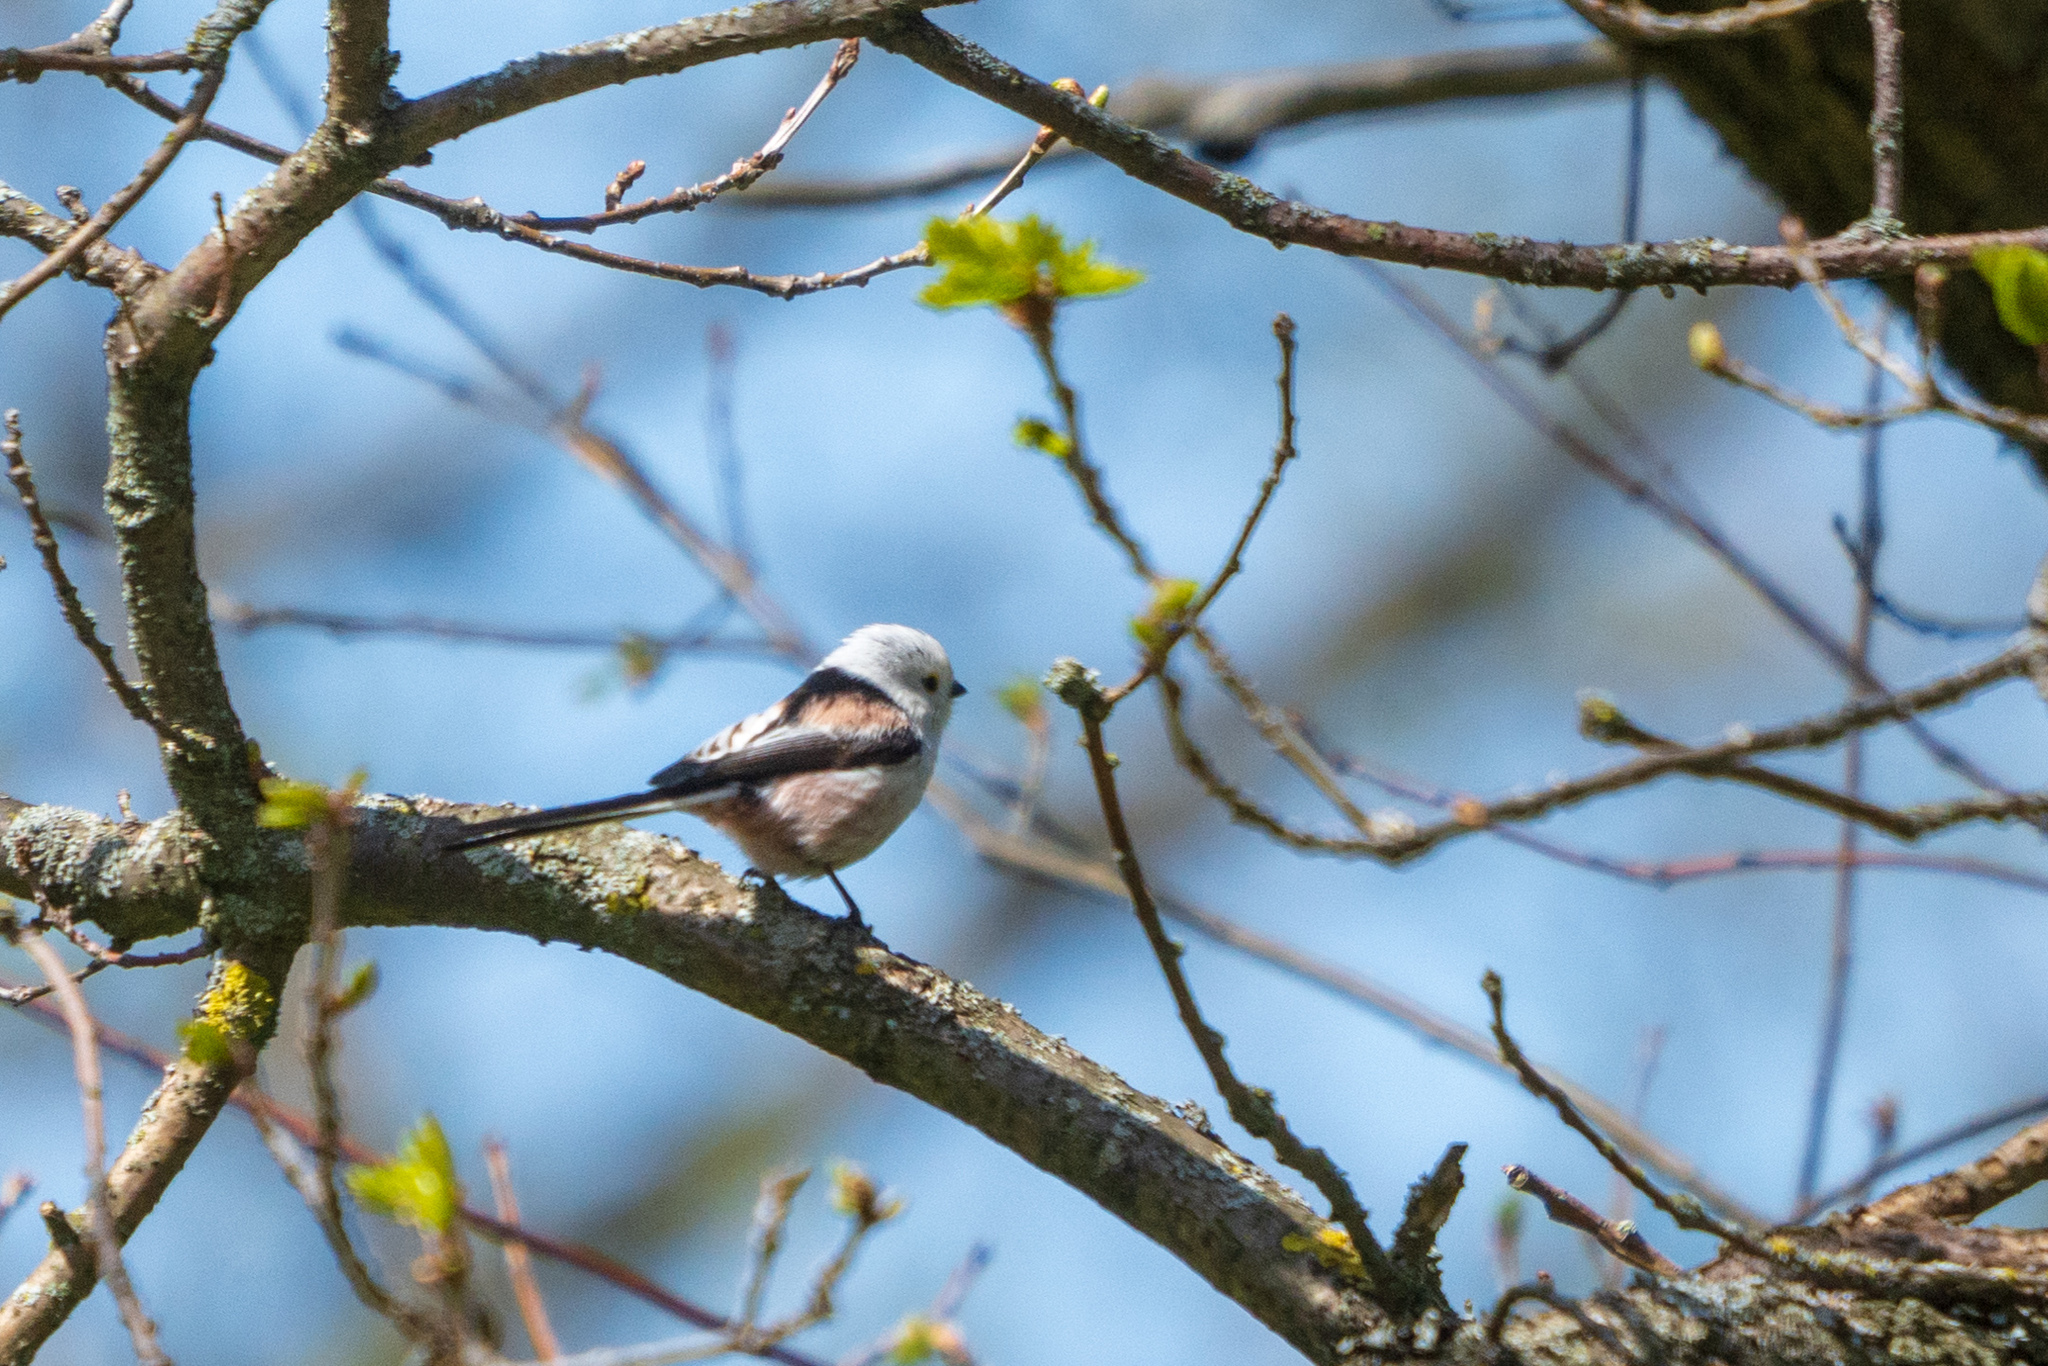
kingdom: Animalia
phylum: Chordata
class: Aves
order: Passeriformes
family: Aegithalidae
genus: Aegithalos
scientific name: Aegithalos caudatus
